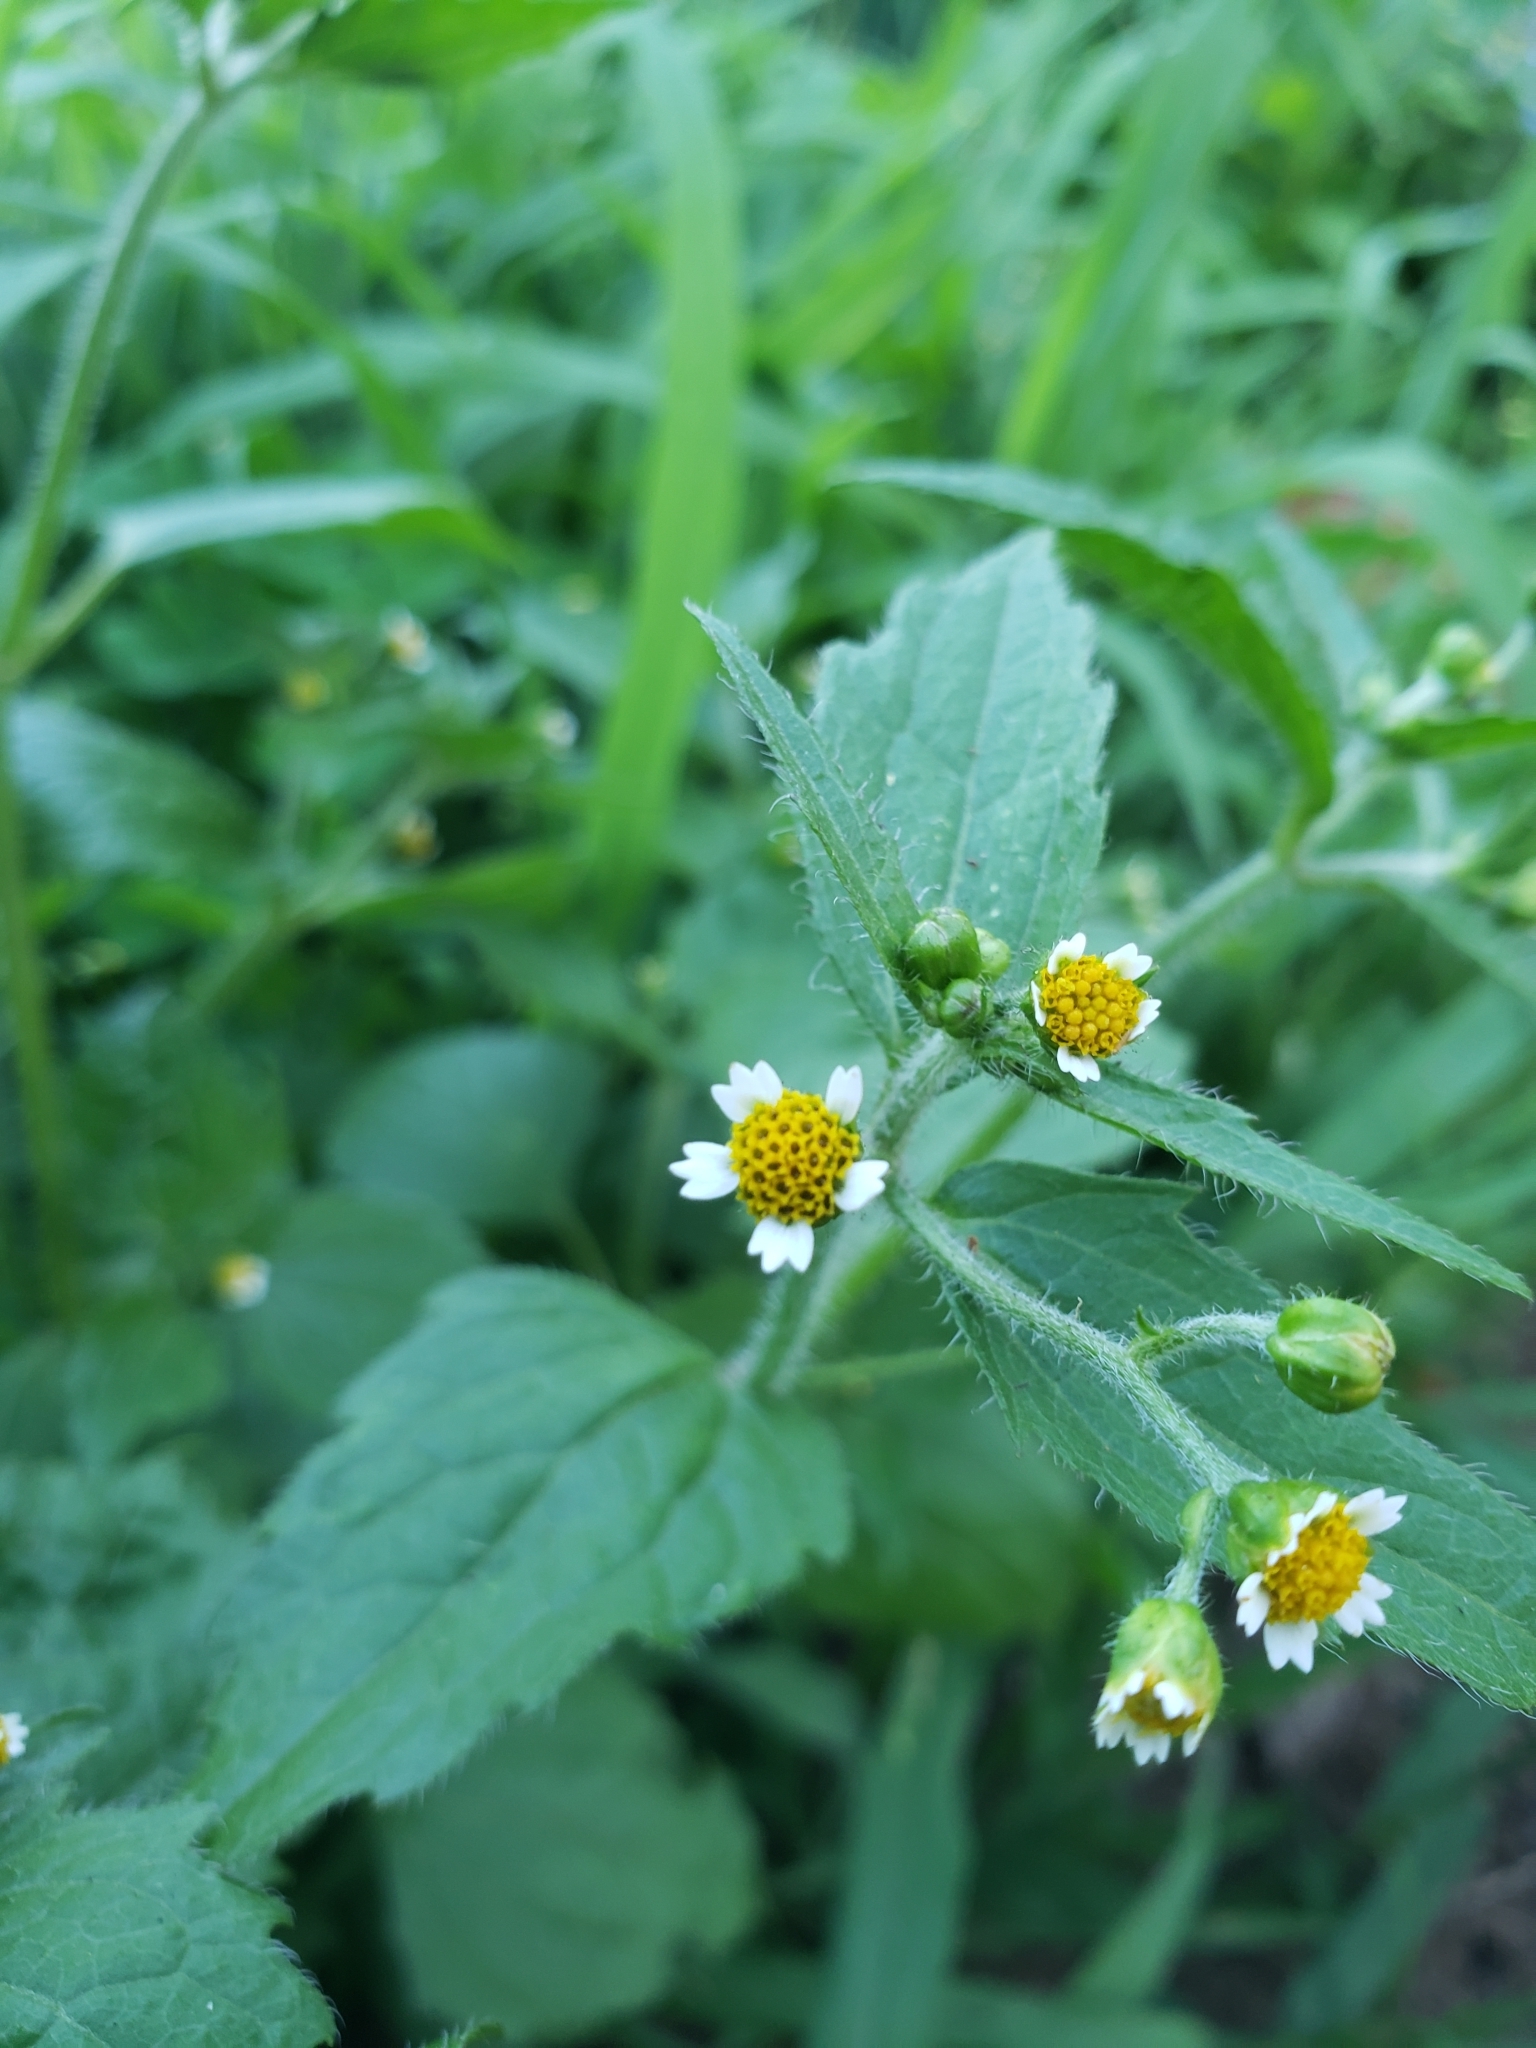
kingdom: Plantae
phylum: Tracheophyta
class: Magnoliopsida
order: Asterales
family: Asteraceae
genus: Galinsoga
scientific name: Galinsoga quadriradiata
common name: Shaggy soldier
